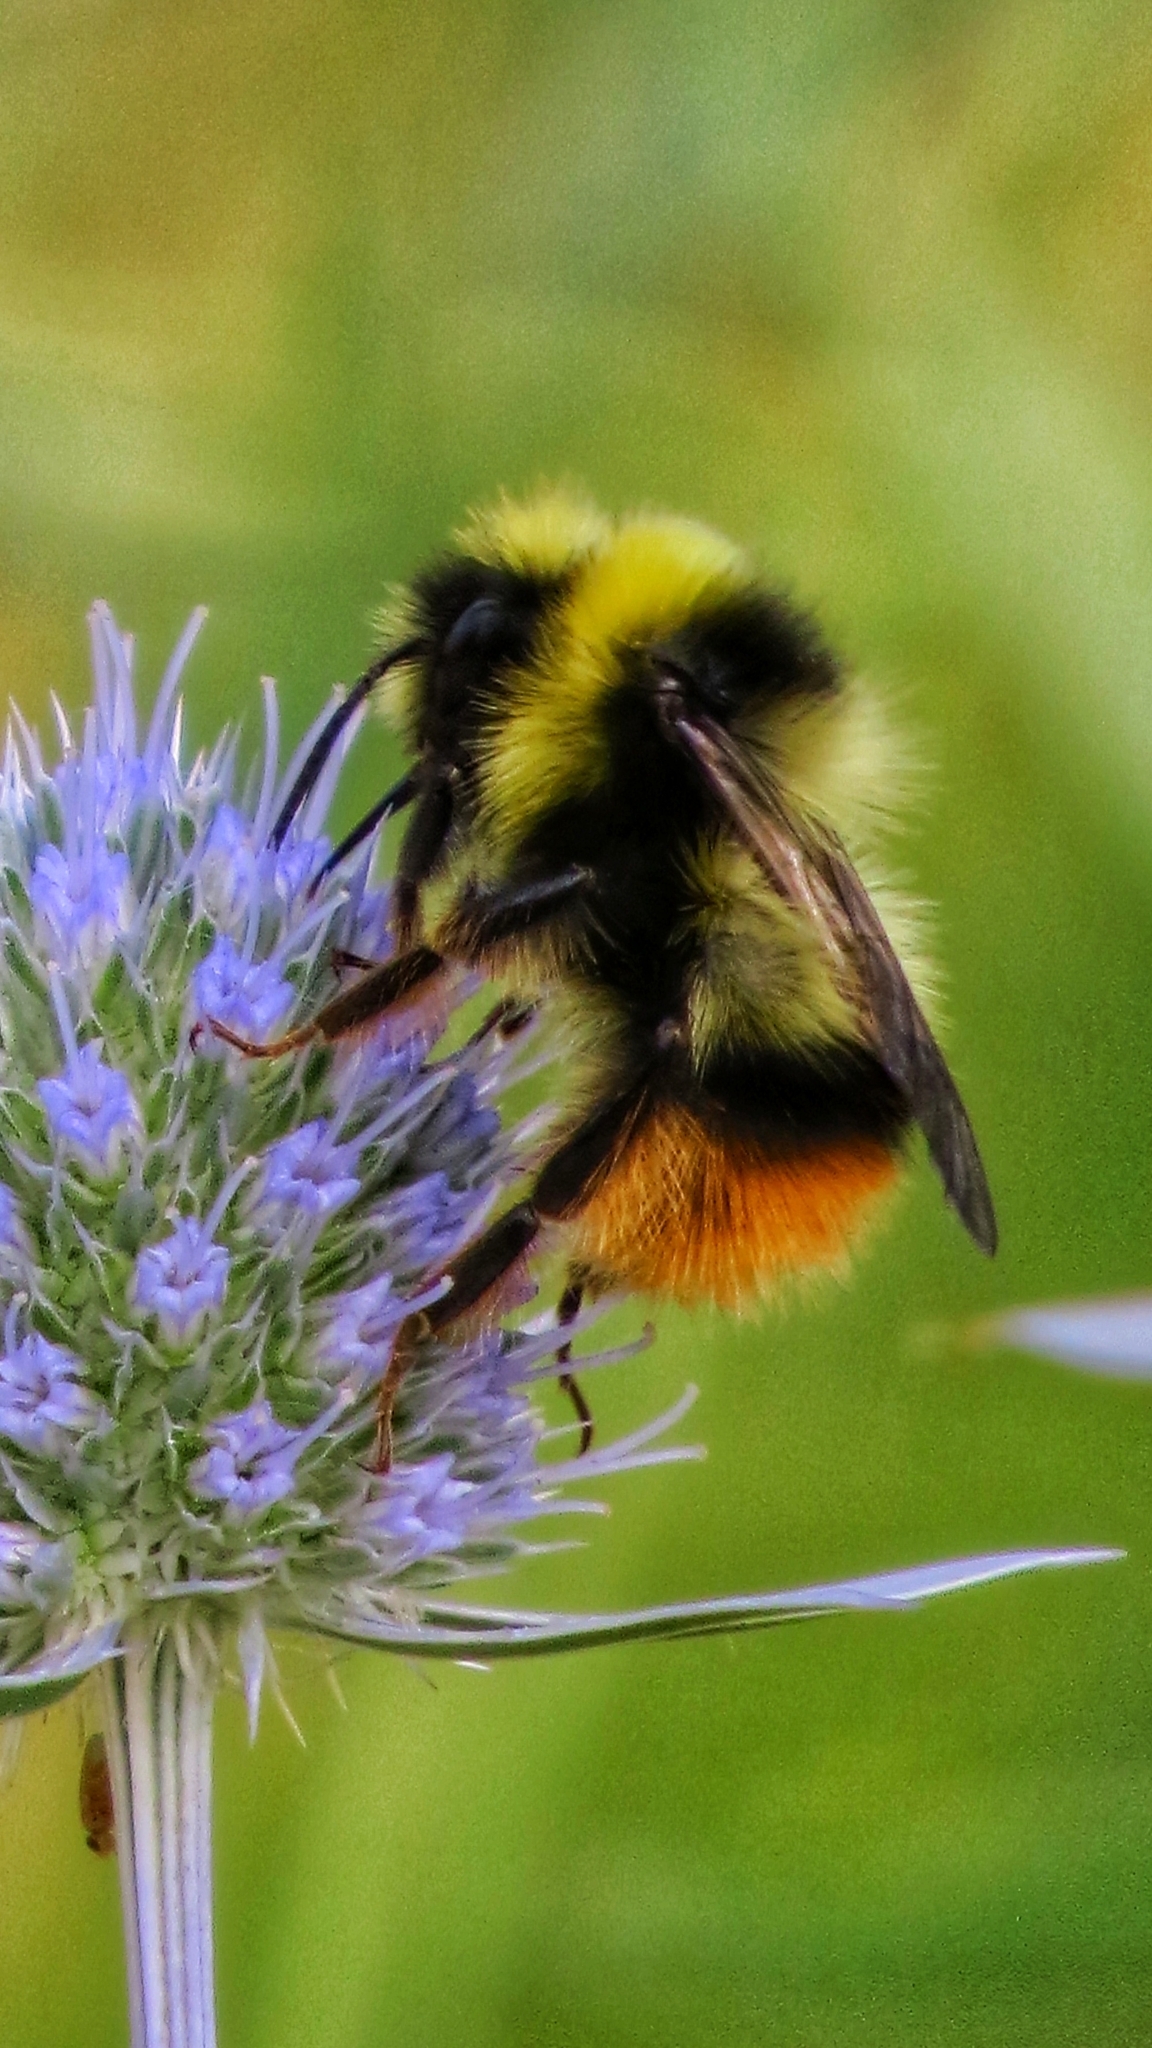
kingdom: Animalia
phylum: Arthropoda
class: Insecta
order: Hymenoptera
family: Apidae
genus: Bombus
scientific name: Bombus sichelii
